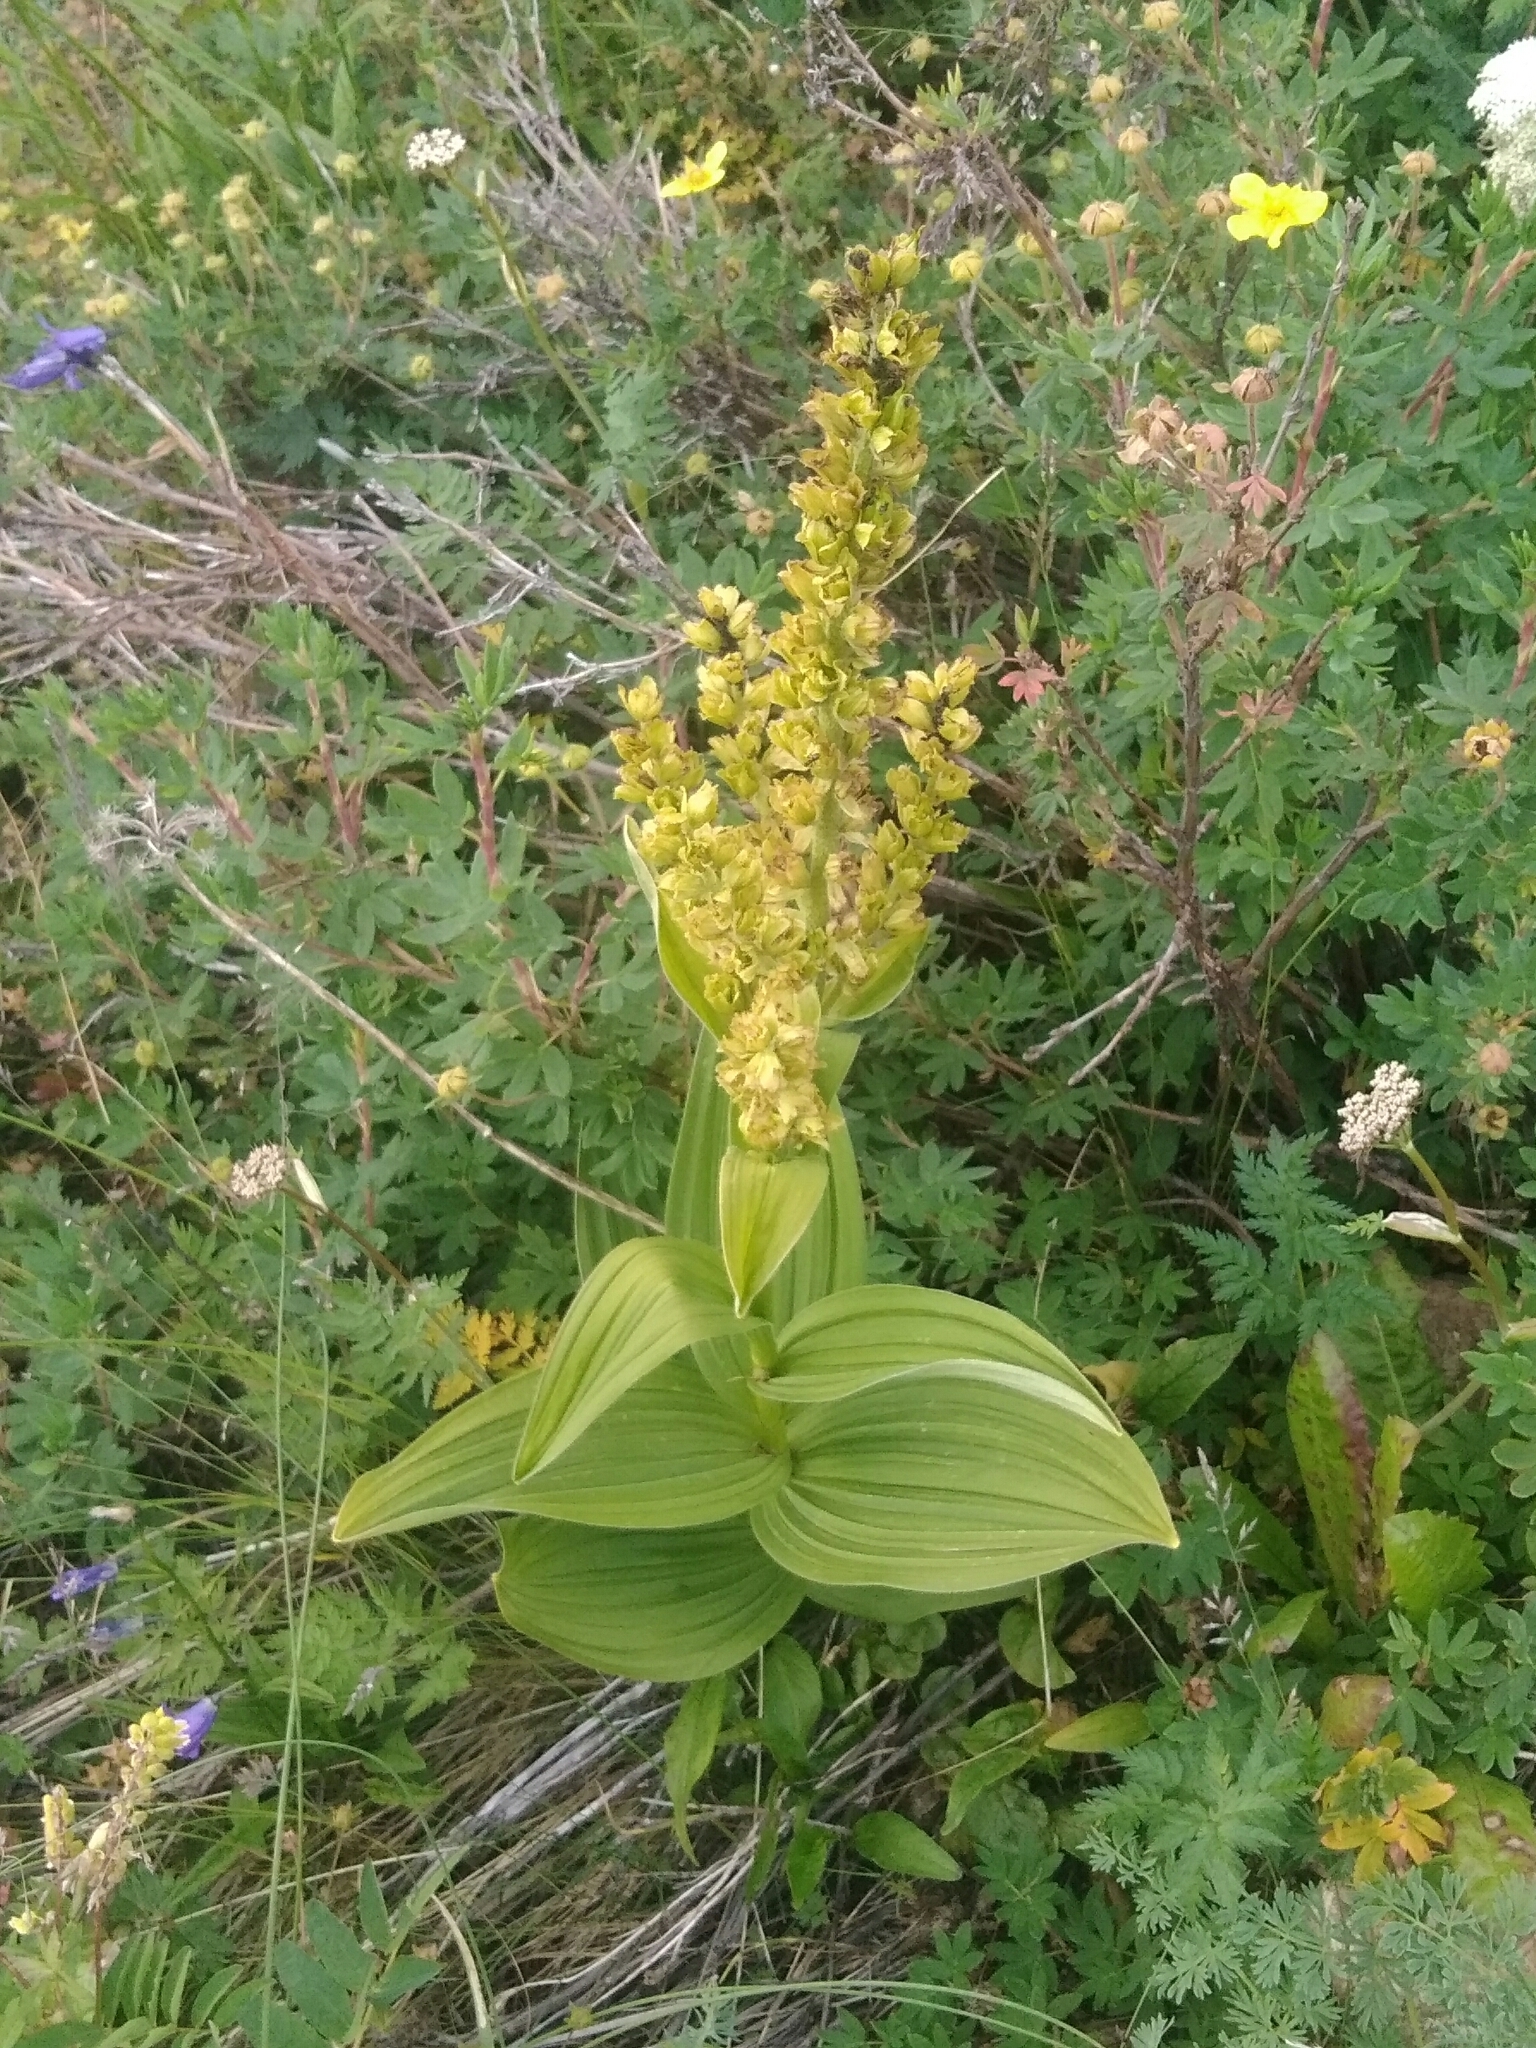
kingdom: Plantae
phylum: Tracheophyta
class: Liliopsida
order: Liliales
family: Melanthiaceae
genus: Veratrum
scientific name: Veratrum lobelianum
